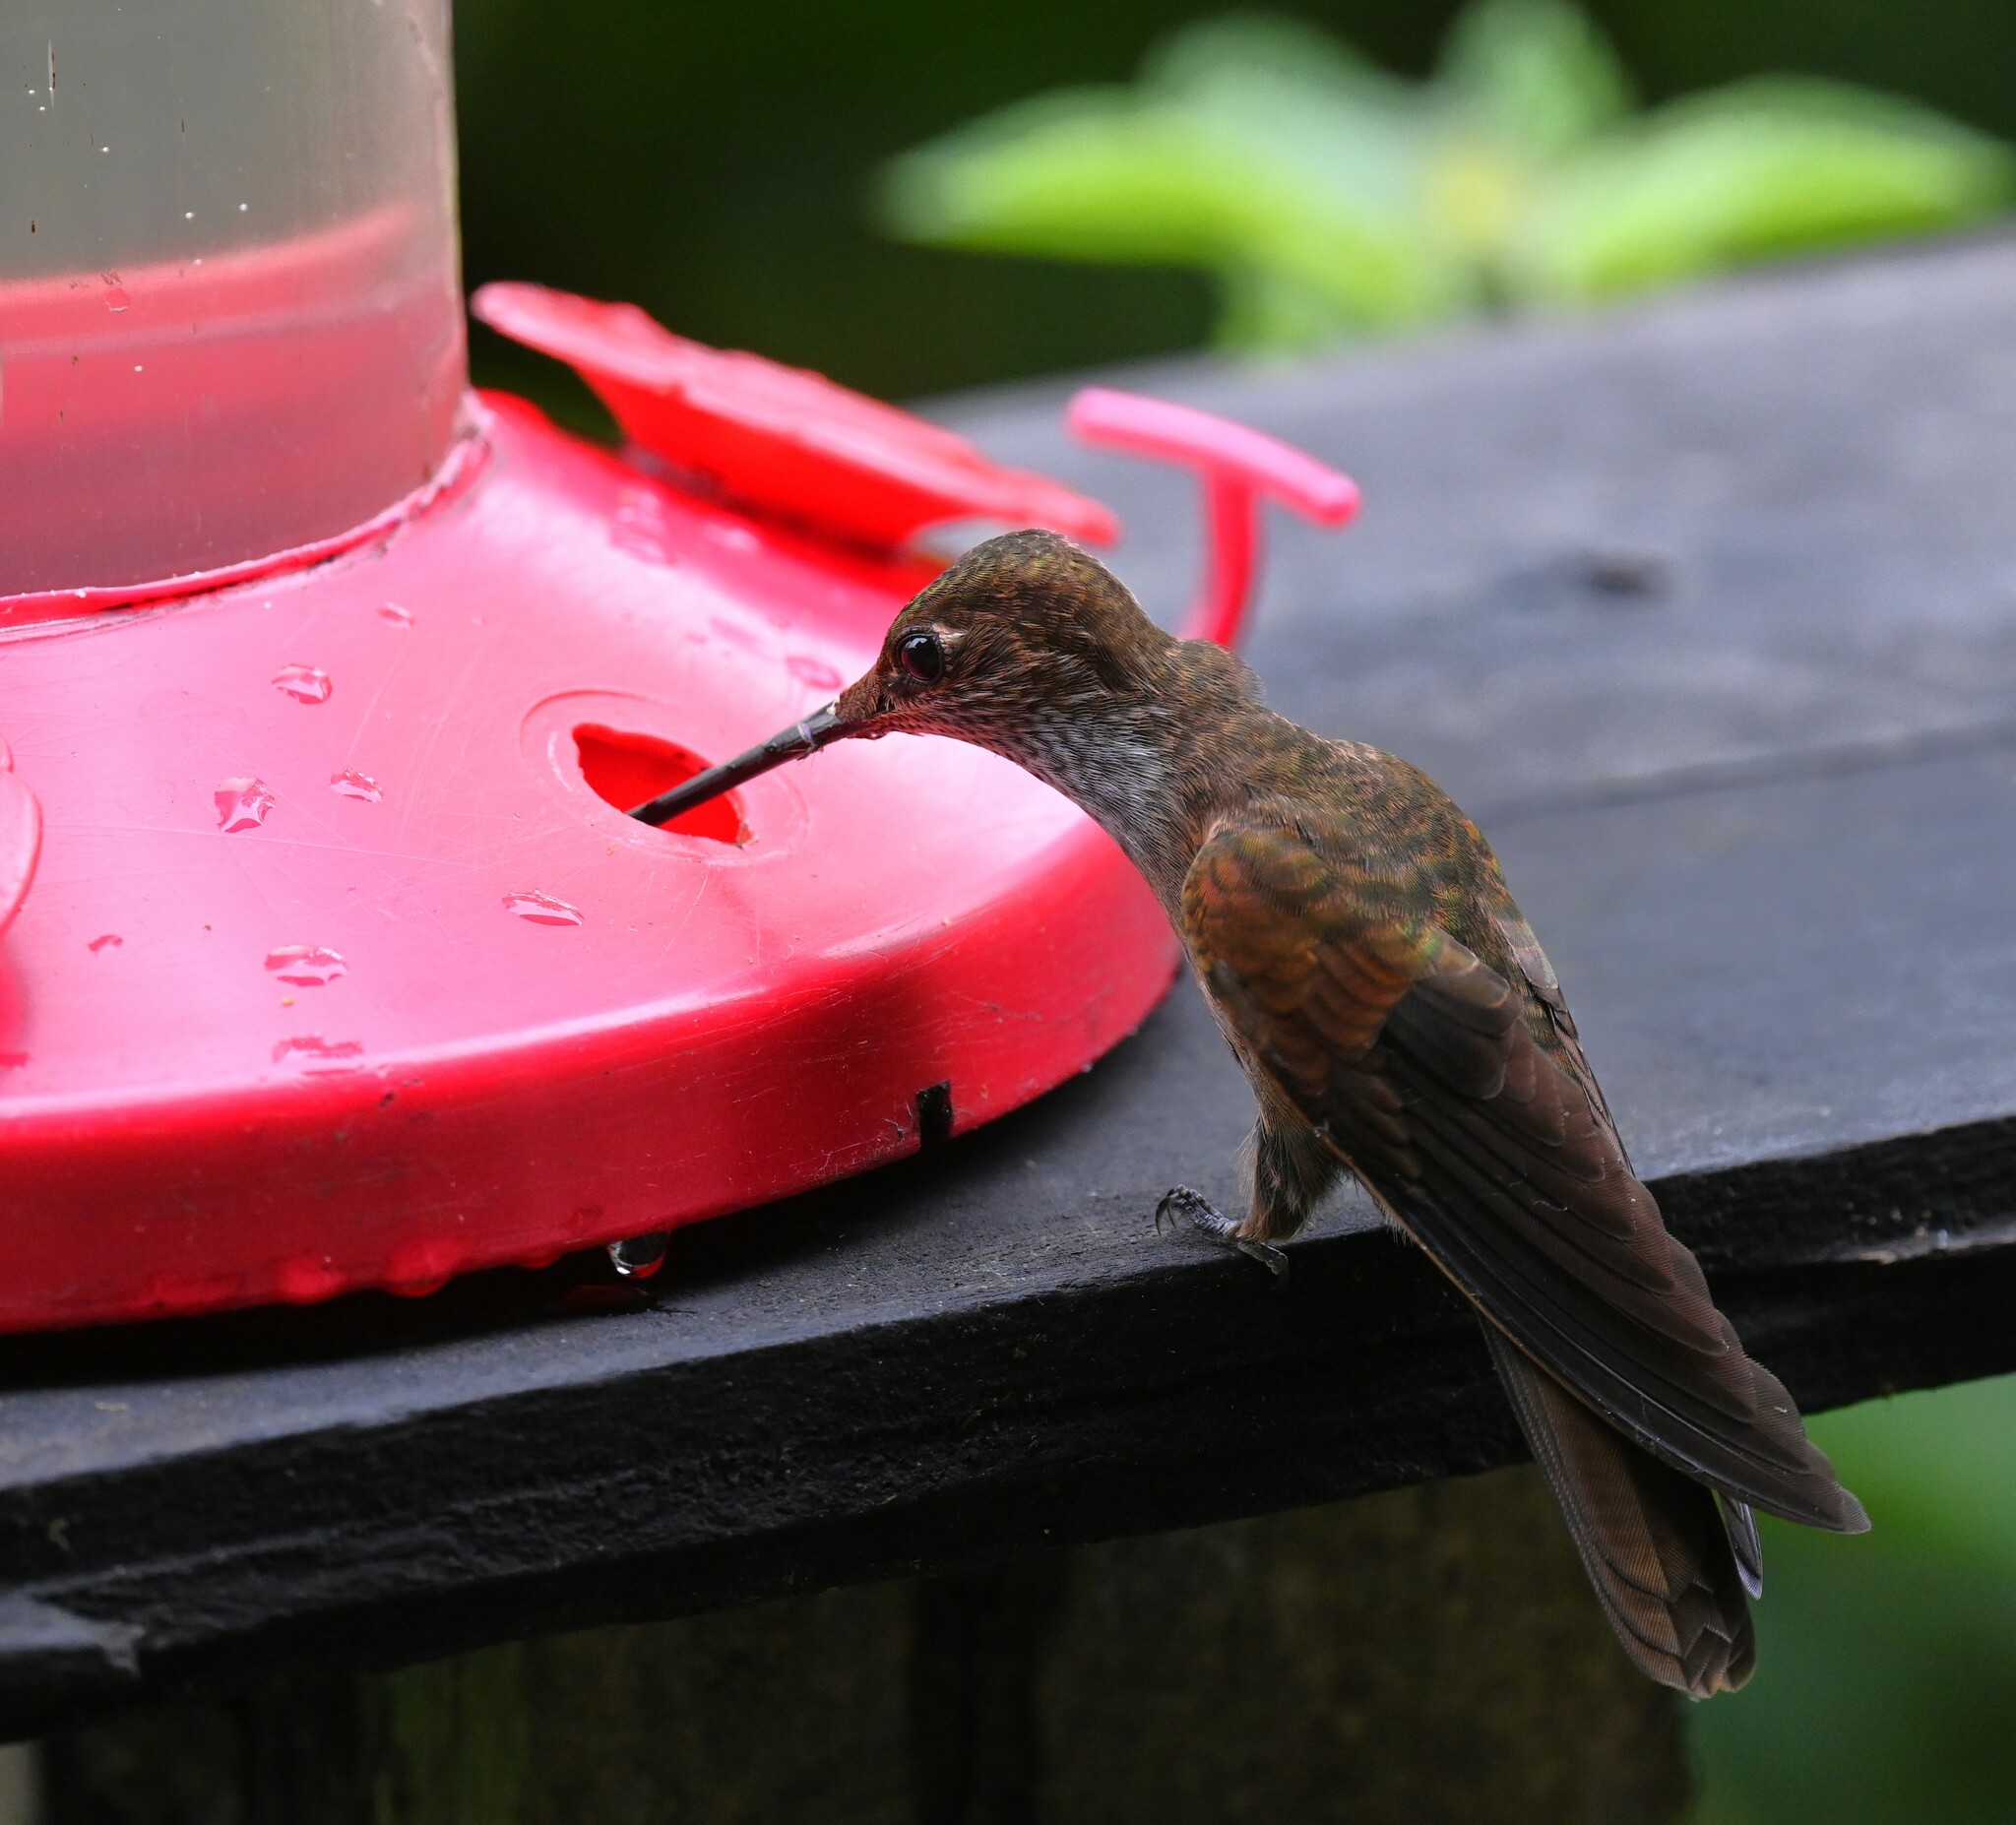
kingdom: Animalia
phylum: Chordata
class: Aves
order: Apodiformes
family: Trochilidae
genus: Coeligena
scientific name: Coeligena coeligena
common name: Bronzy inca
